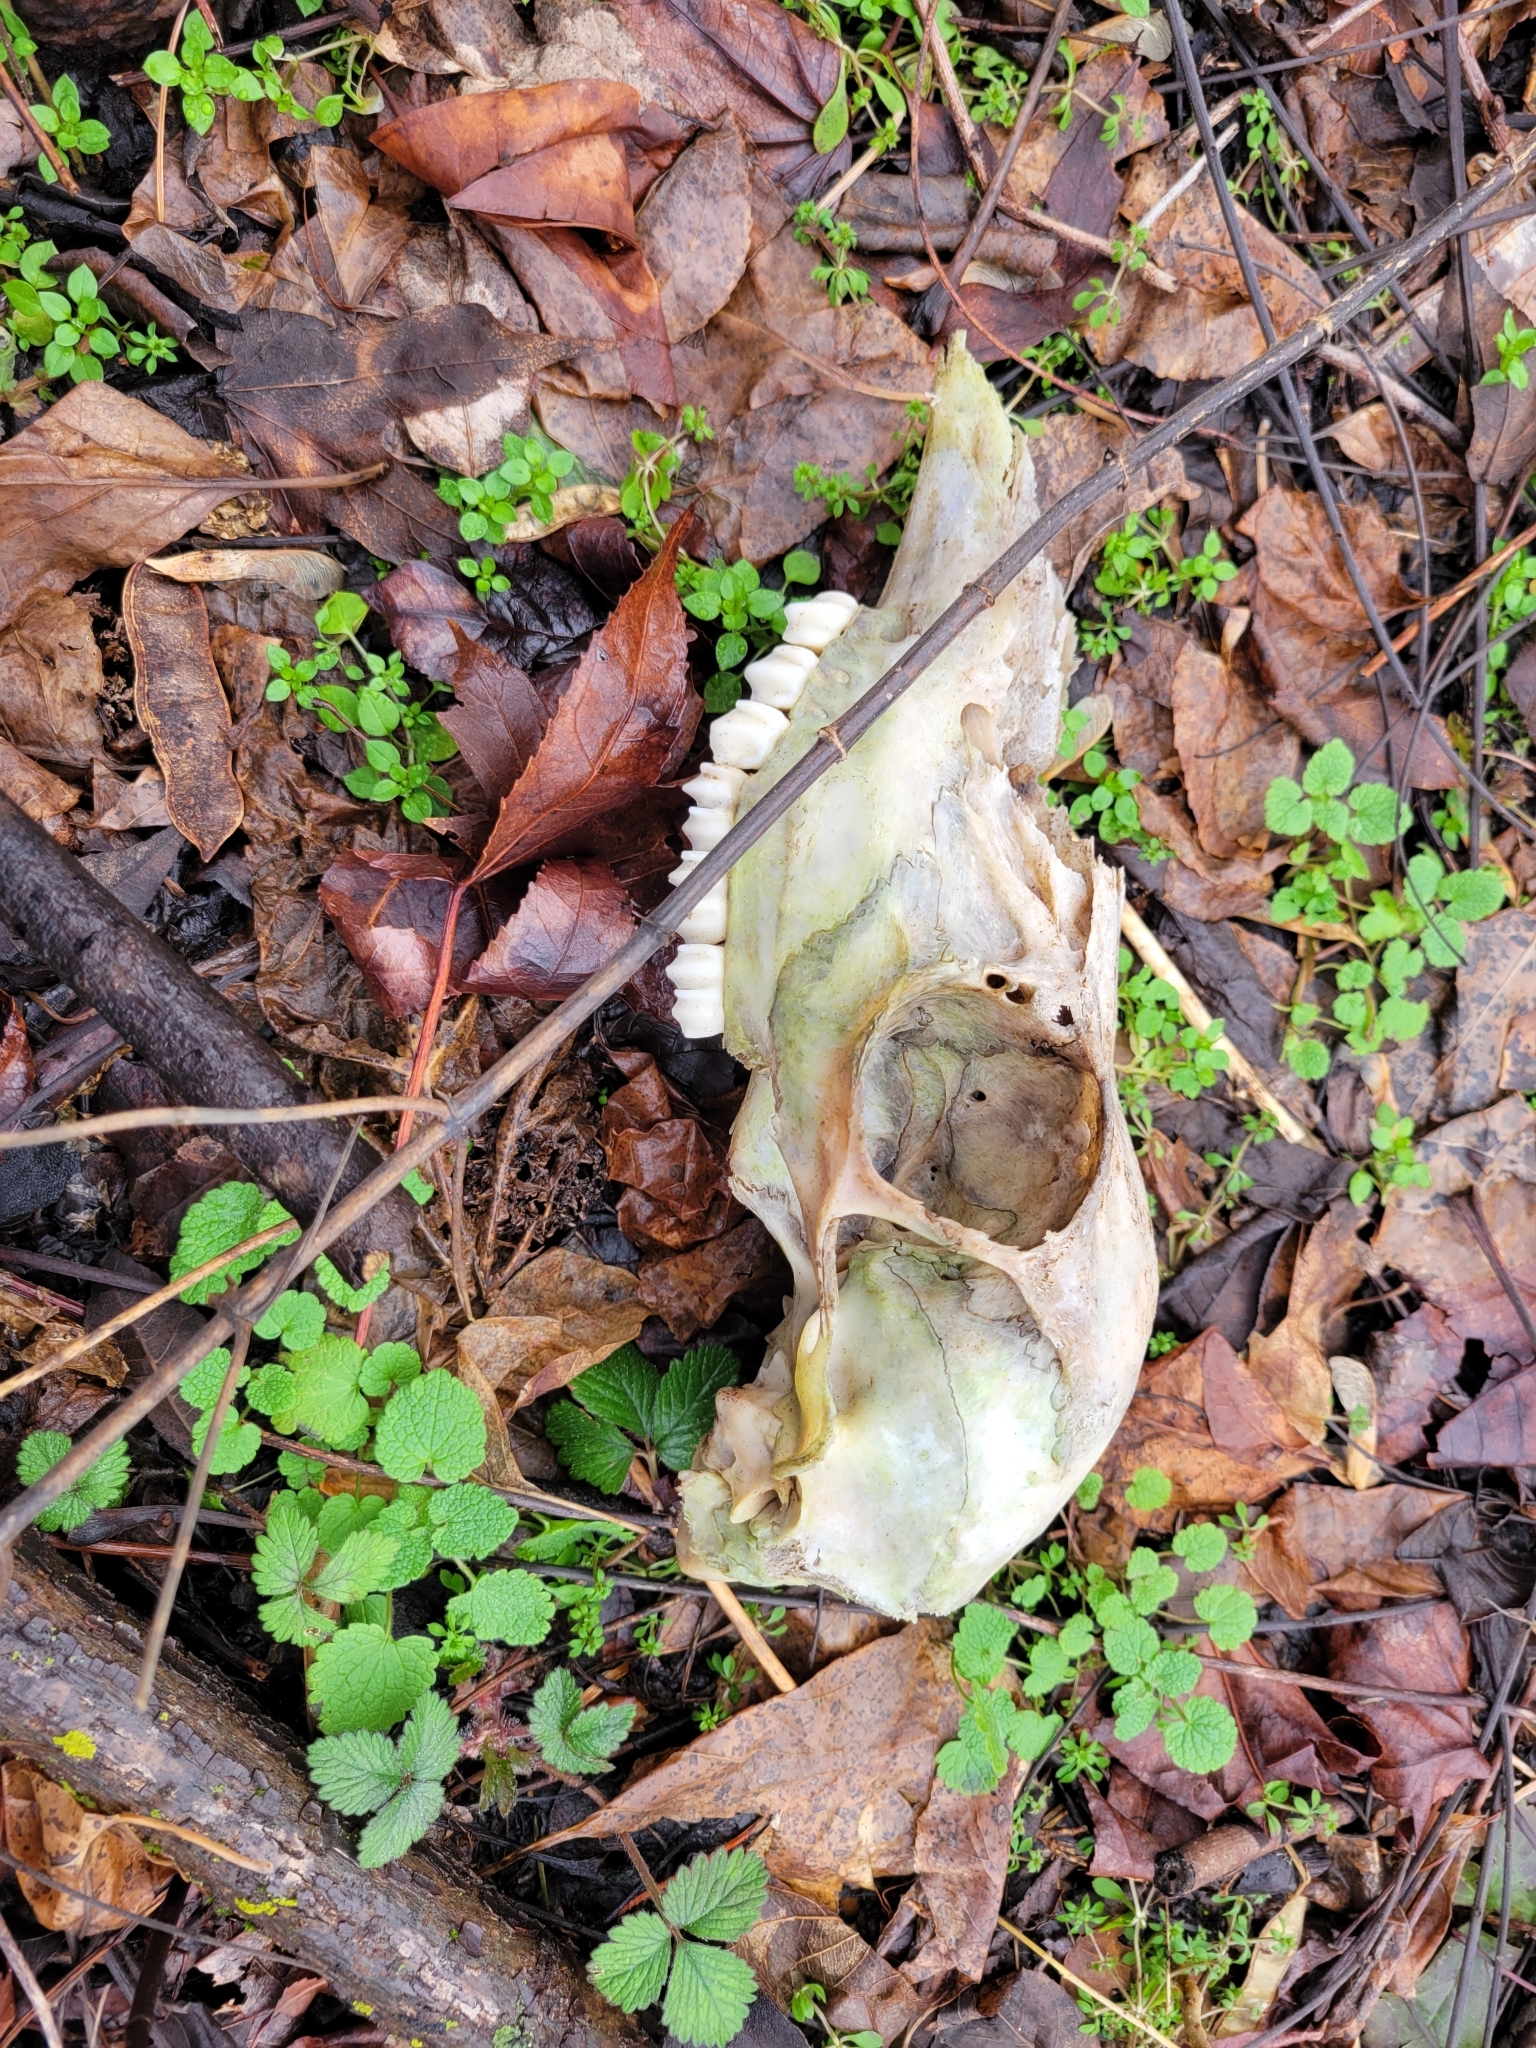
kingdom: Animalia
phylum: Chordata
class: Mammalia
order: Artiodactyla
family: Cervidae
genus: Odocoileus
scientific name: Odocoileus virginianus
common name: White-tailed deer
